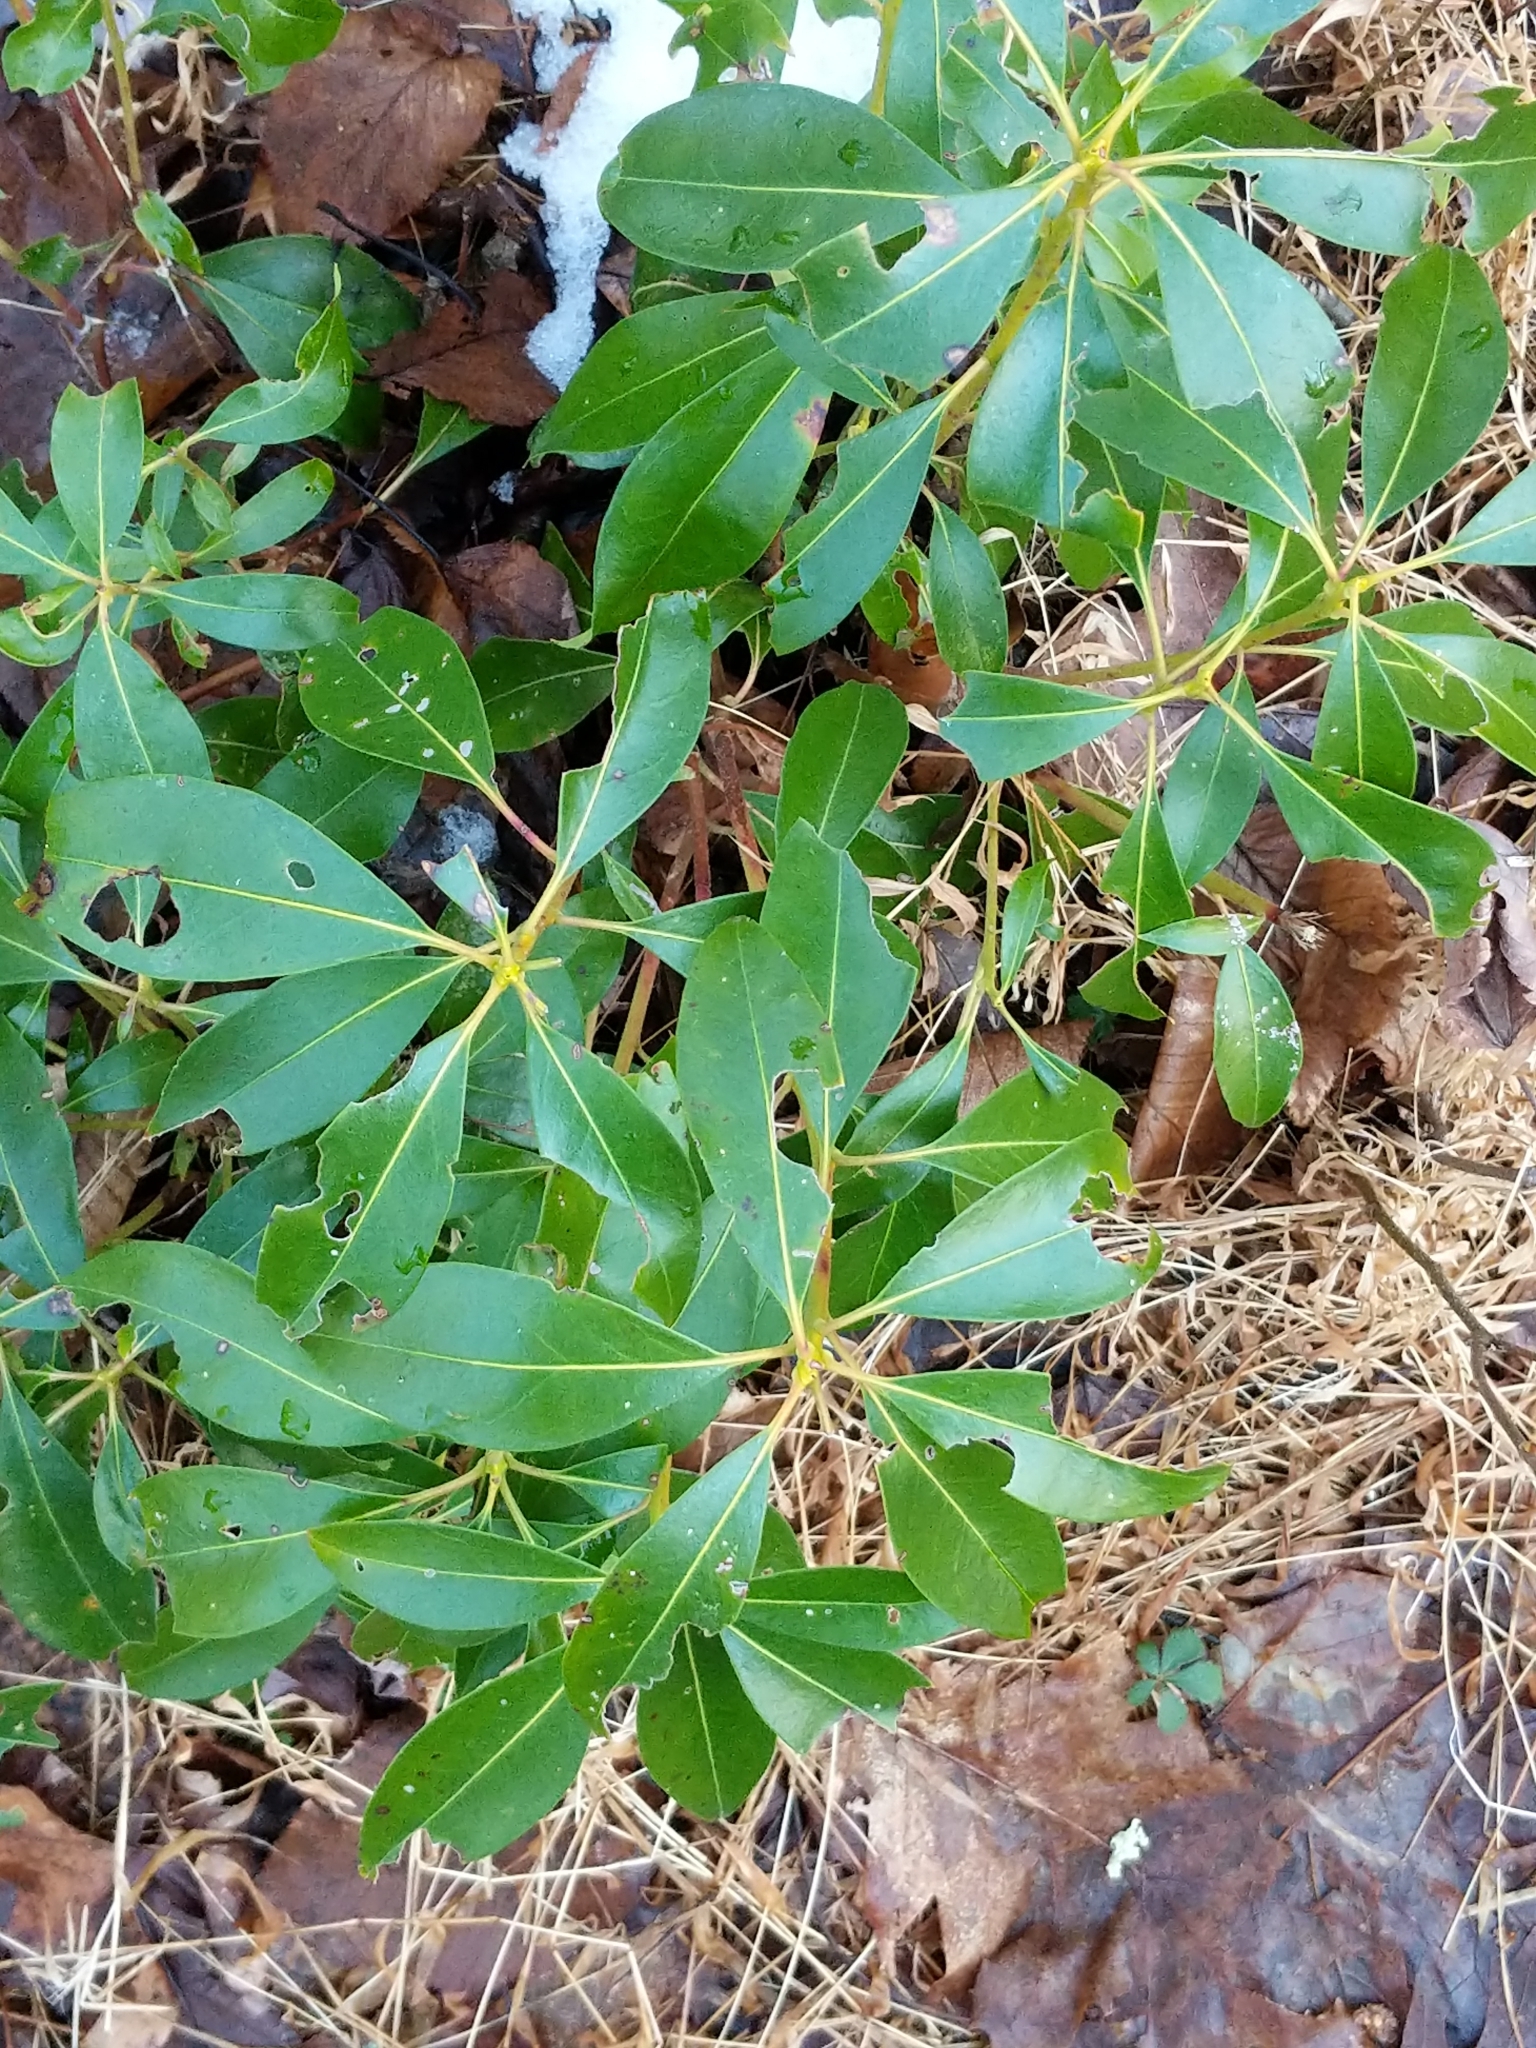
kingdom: Plantae
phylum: Tracheophyta
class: Magnoliopsida
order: Ericales
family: Ericaceae
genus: Kalmia
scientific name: Kalmia latifolia
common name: Mountain-laurel
